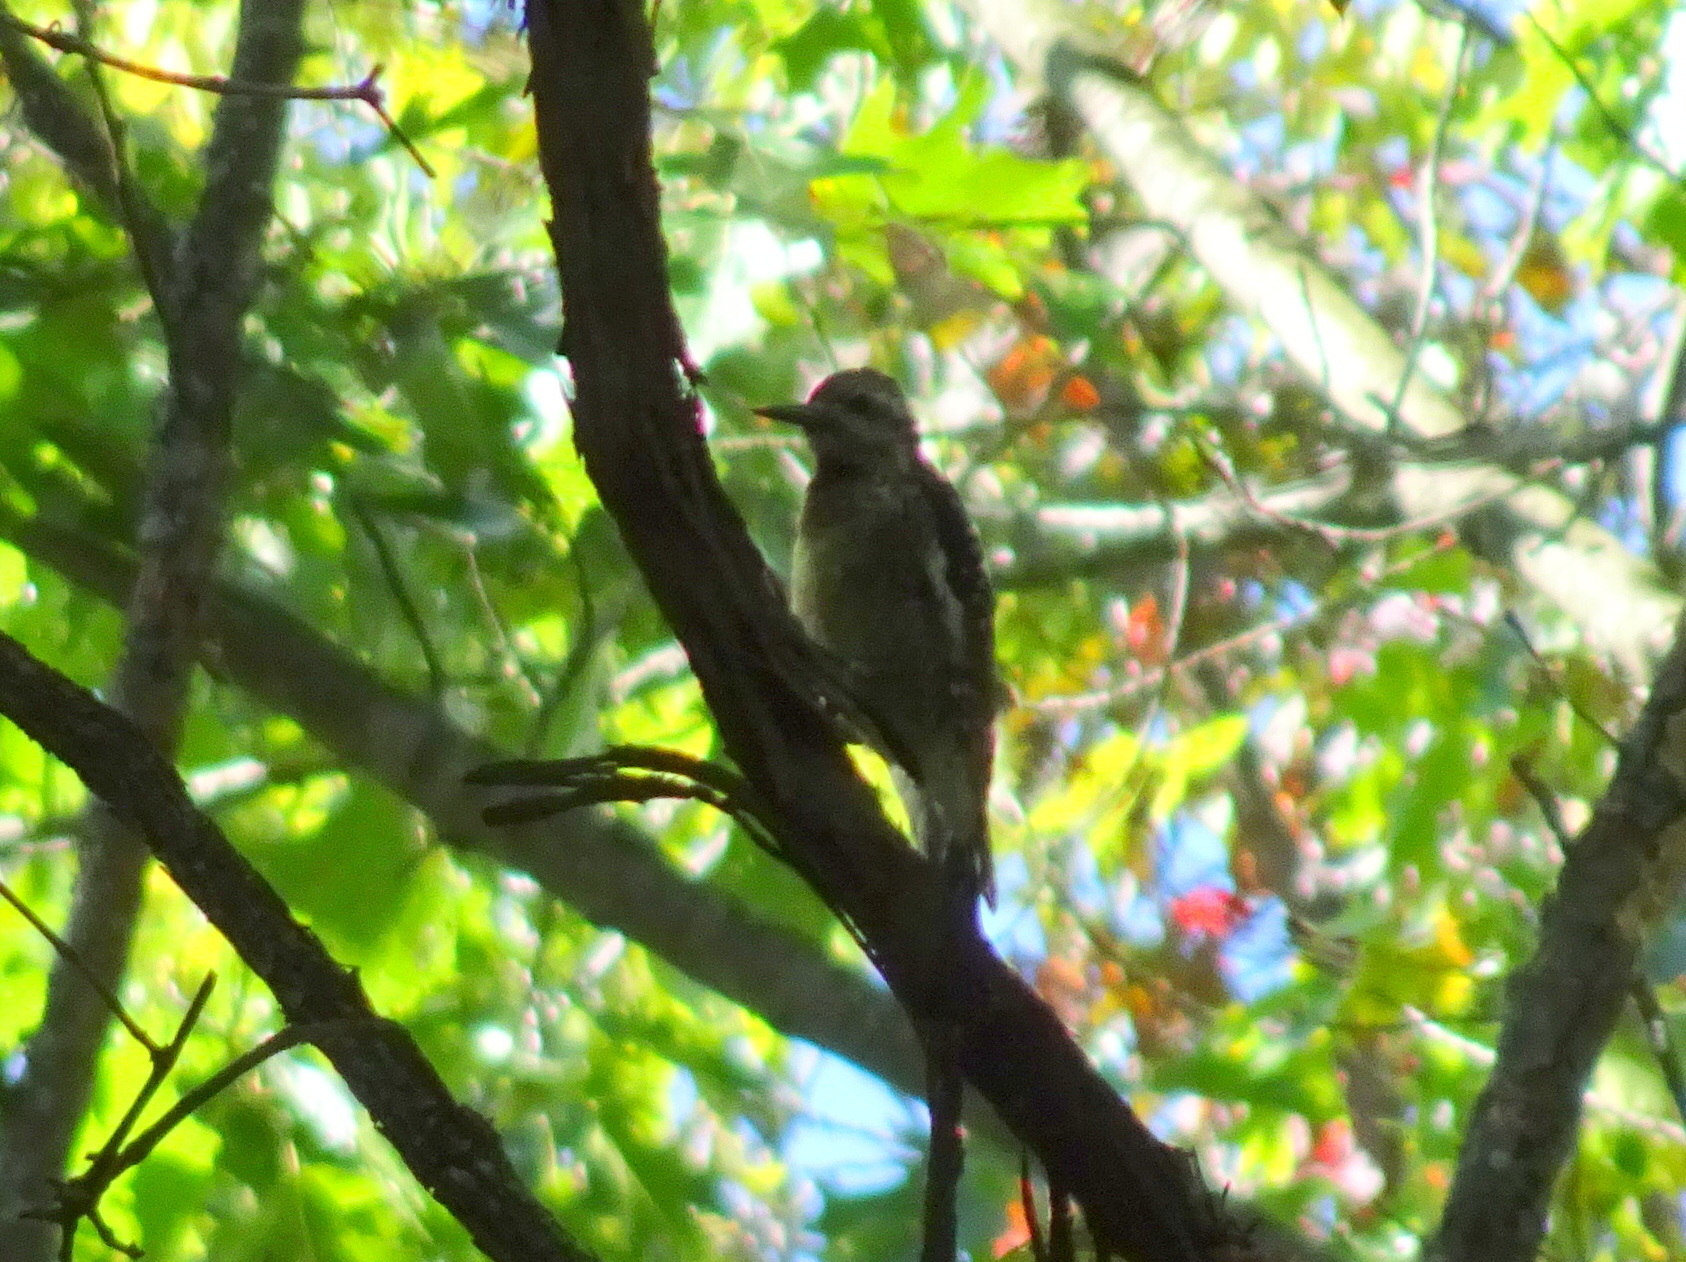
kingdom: Animalia
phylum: Chordata
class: Aves
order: Piciformes
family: Picidae
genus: Sphyrapicus
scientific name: Sphyrapicus varius
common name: Yellow-bellied sapsucker
